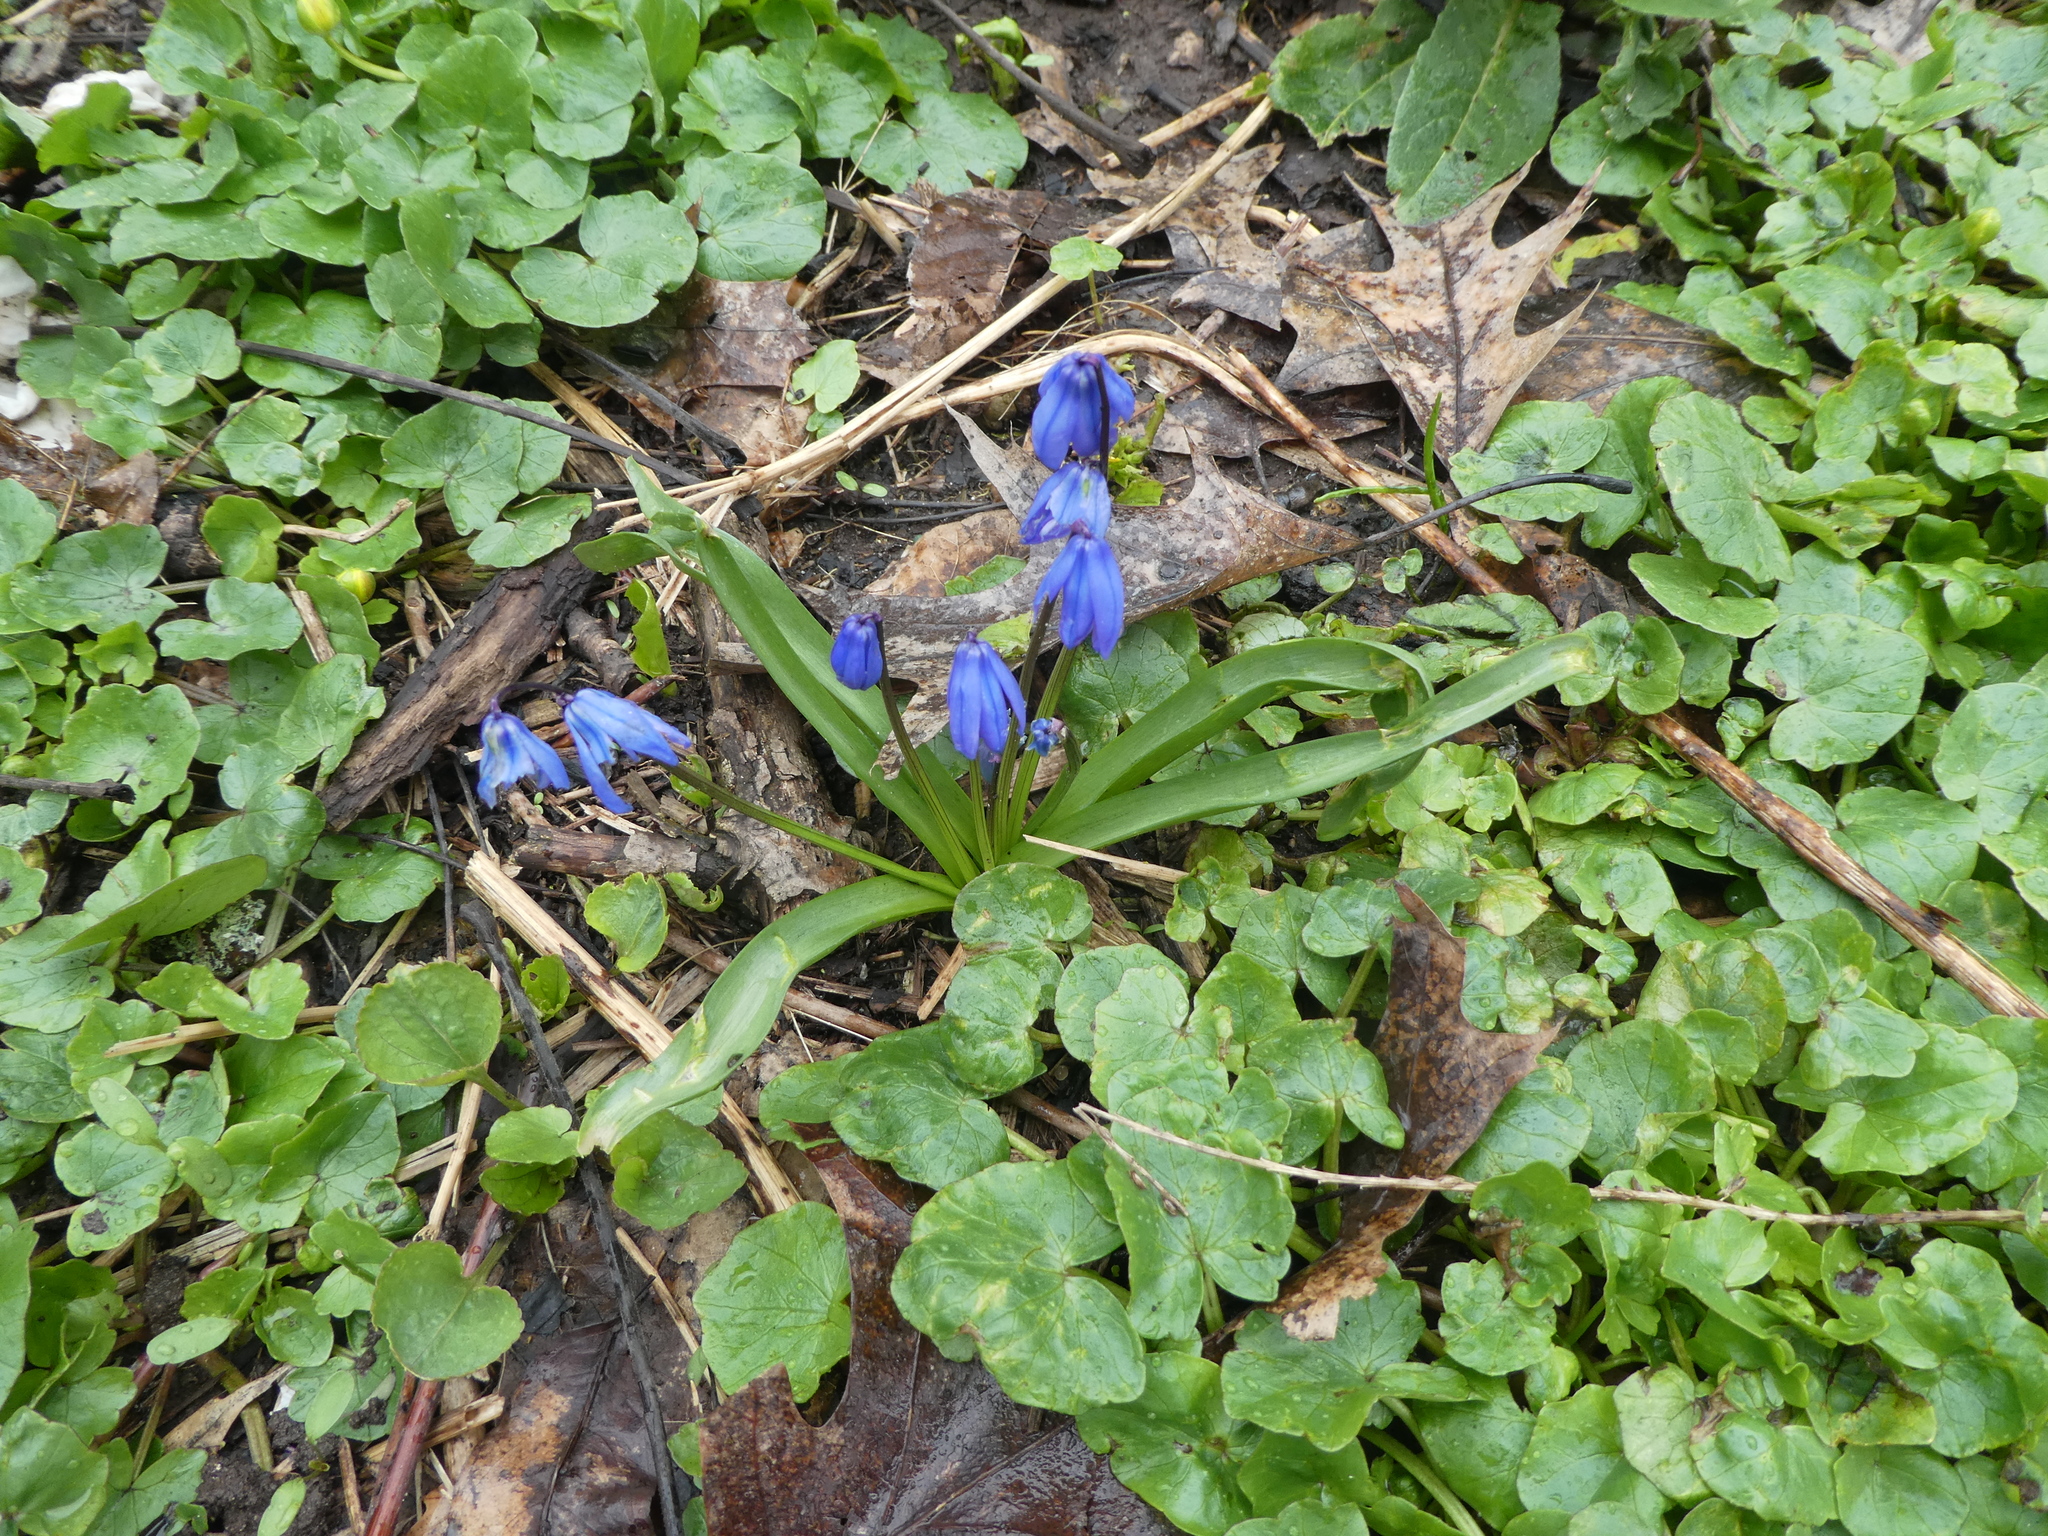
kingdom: Plantae
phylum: Tracheophyta
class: Liliopsida
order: Asparagales
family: Asparagaceae
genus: Scilla
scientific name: Scilla siberica
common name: Siberian squill
